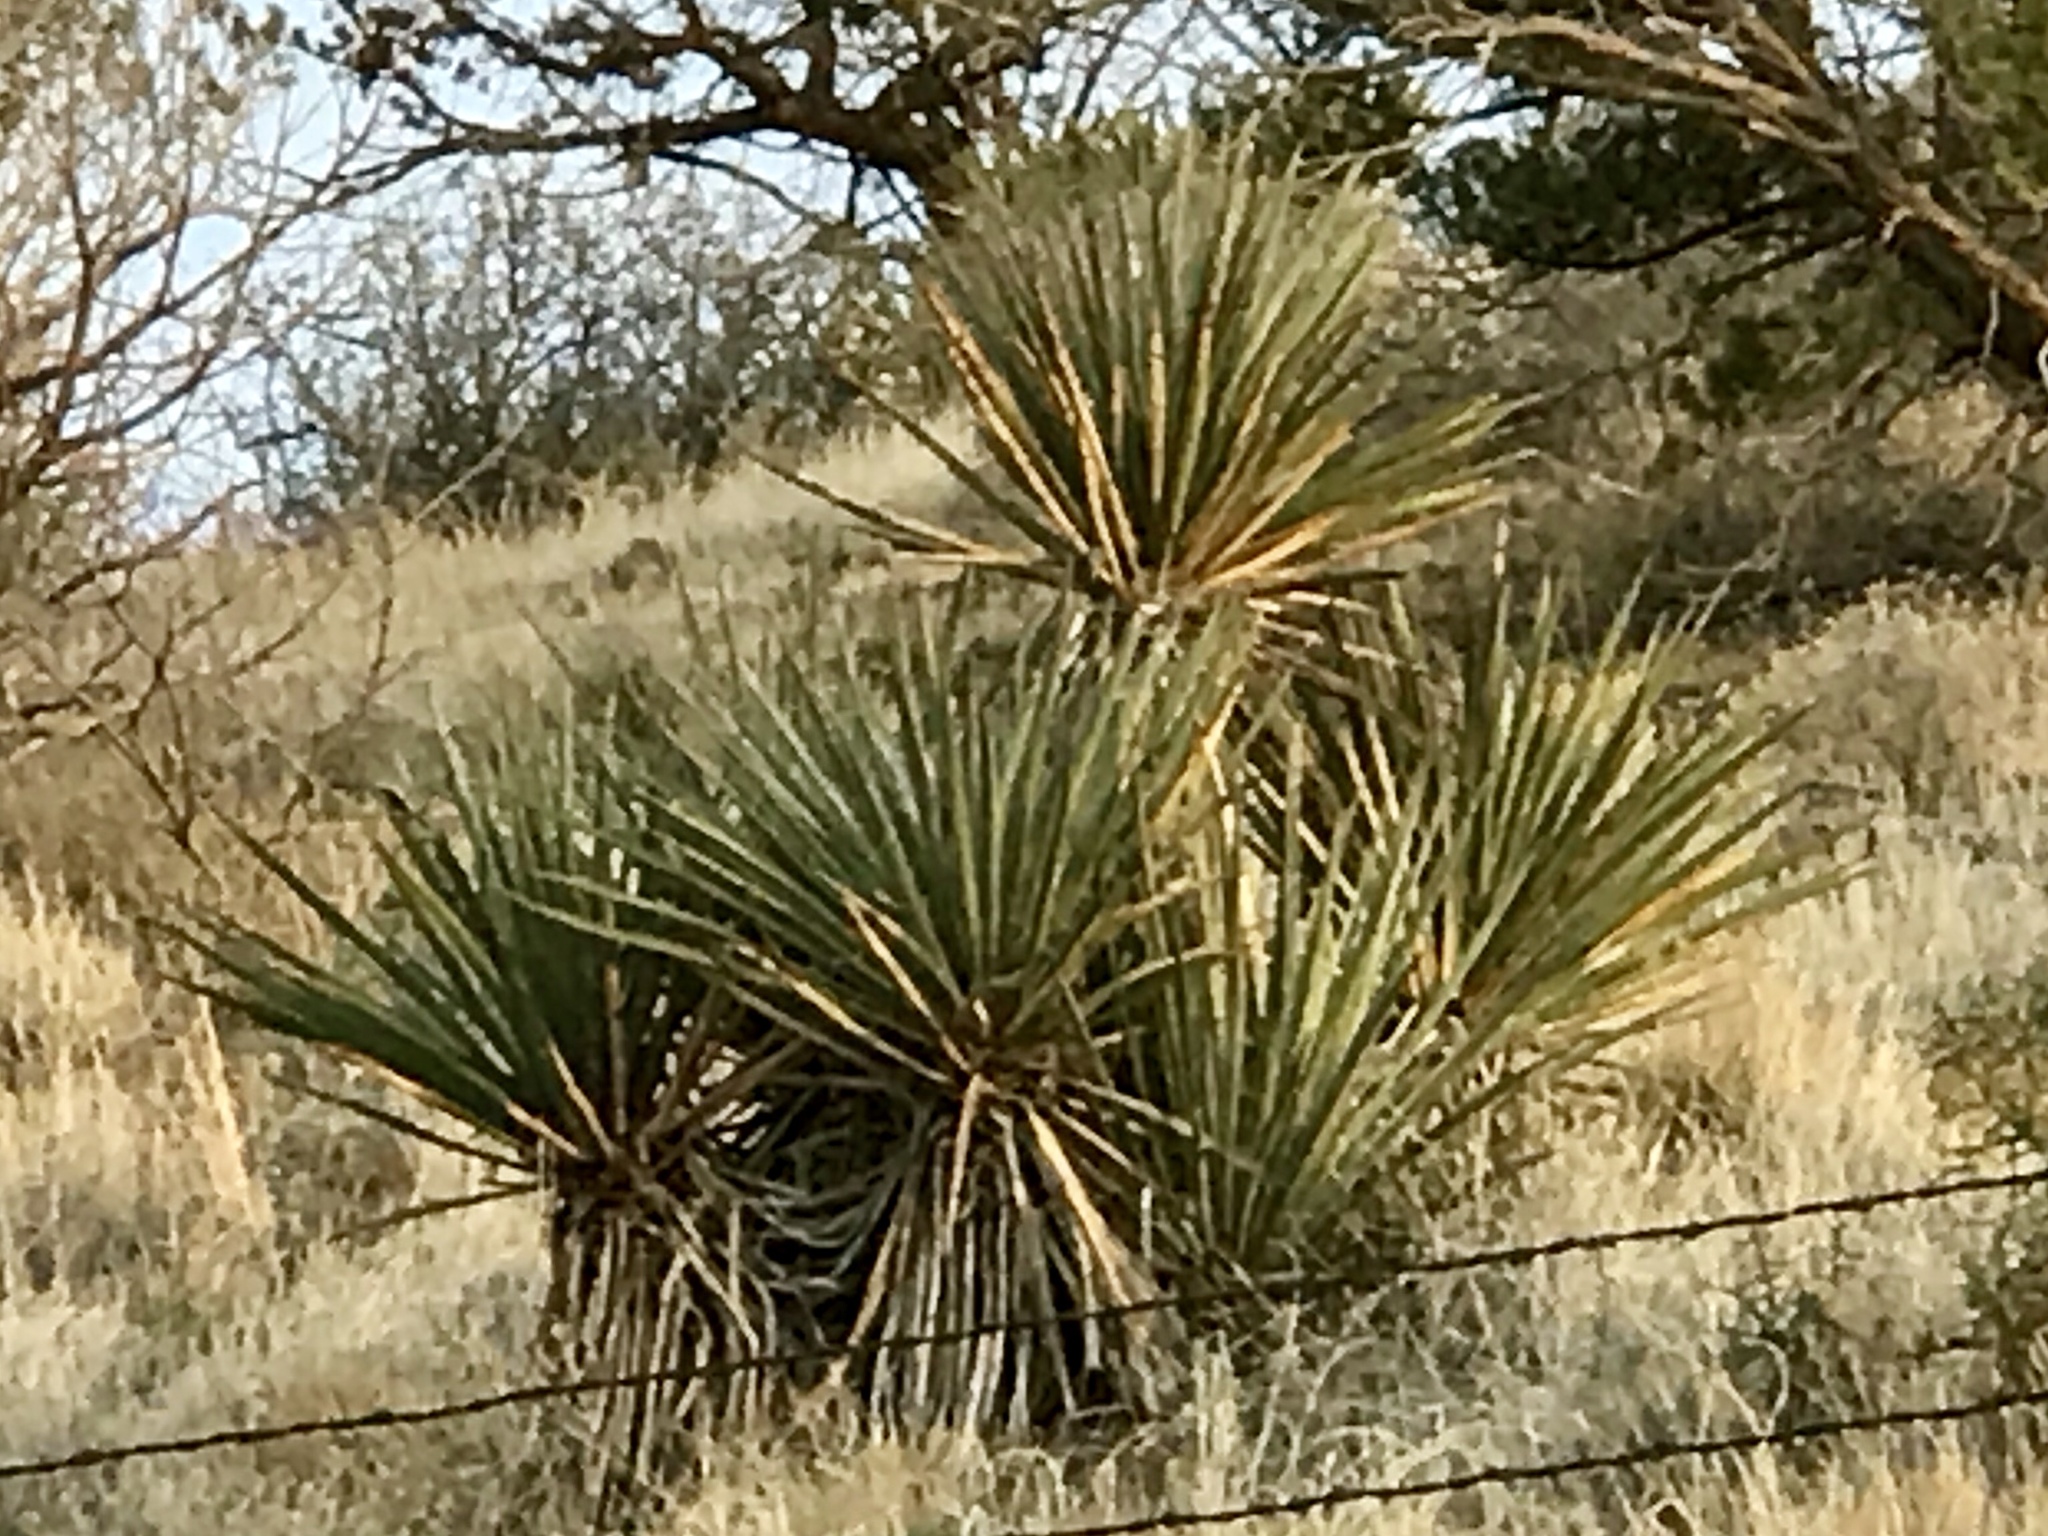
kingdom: Plantae
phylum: Tracheophyta
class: Liliopsida
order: Asparagales
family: Asparagaceae
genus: Yucca
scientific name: Yucca baccata
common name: Banana yucca
